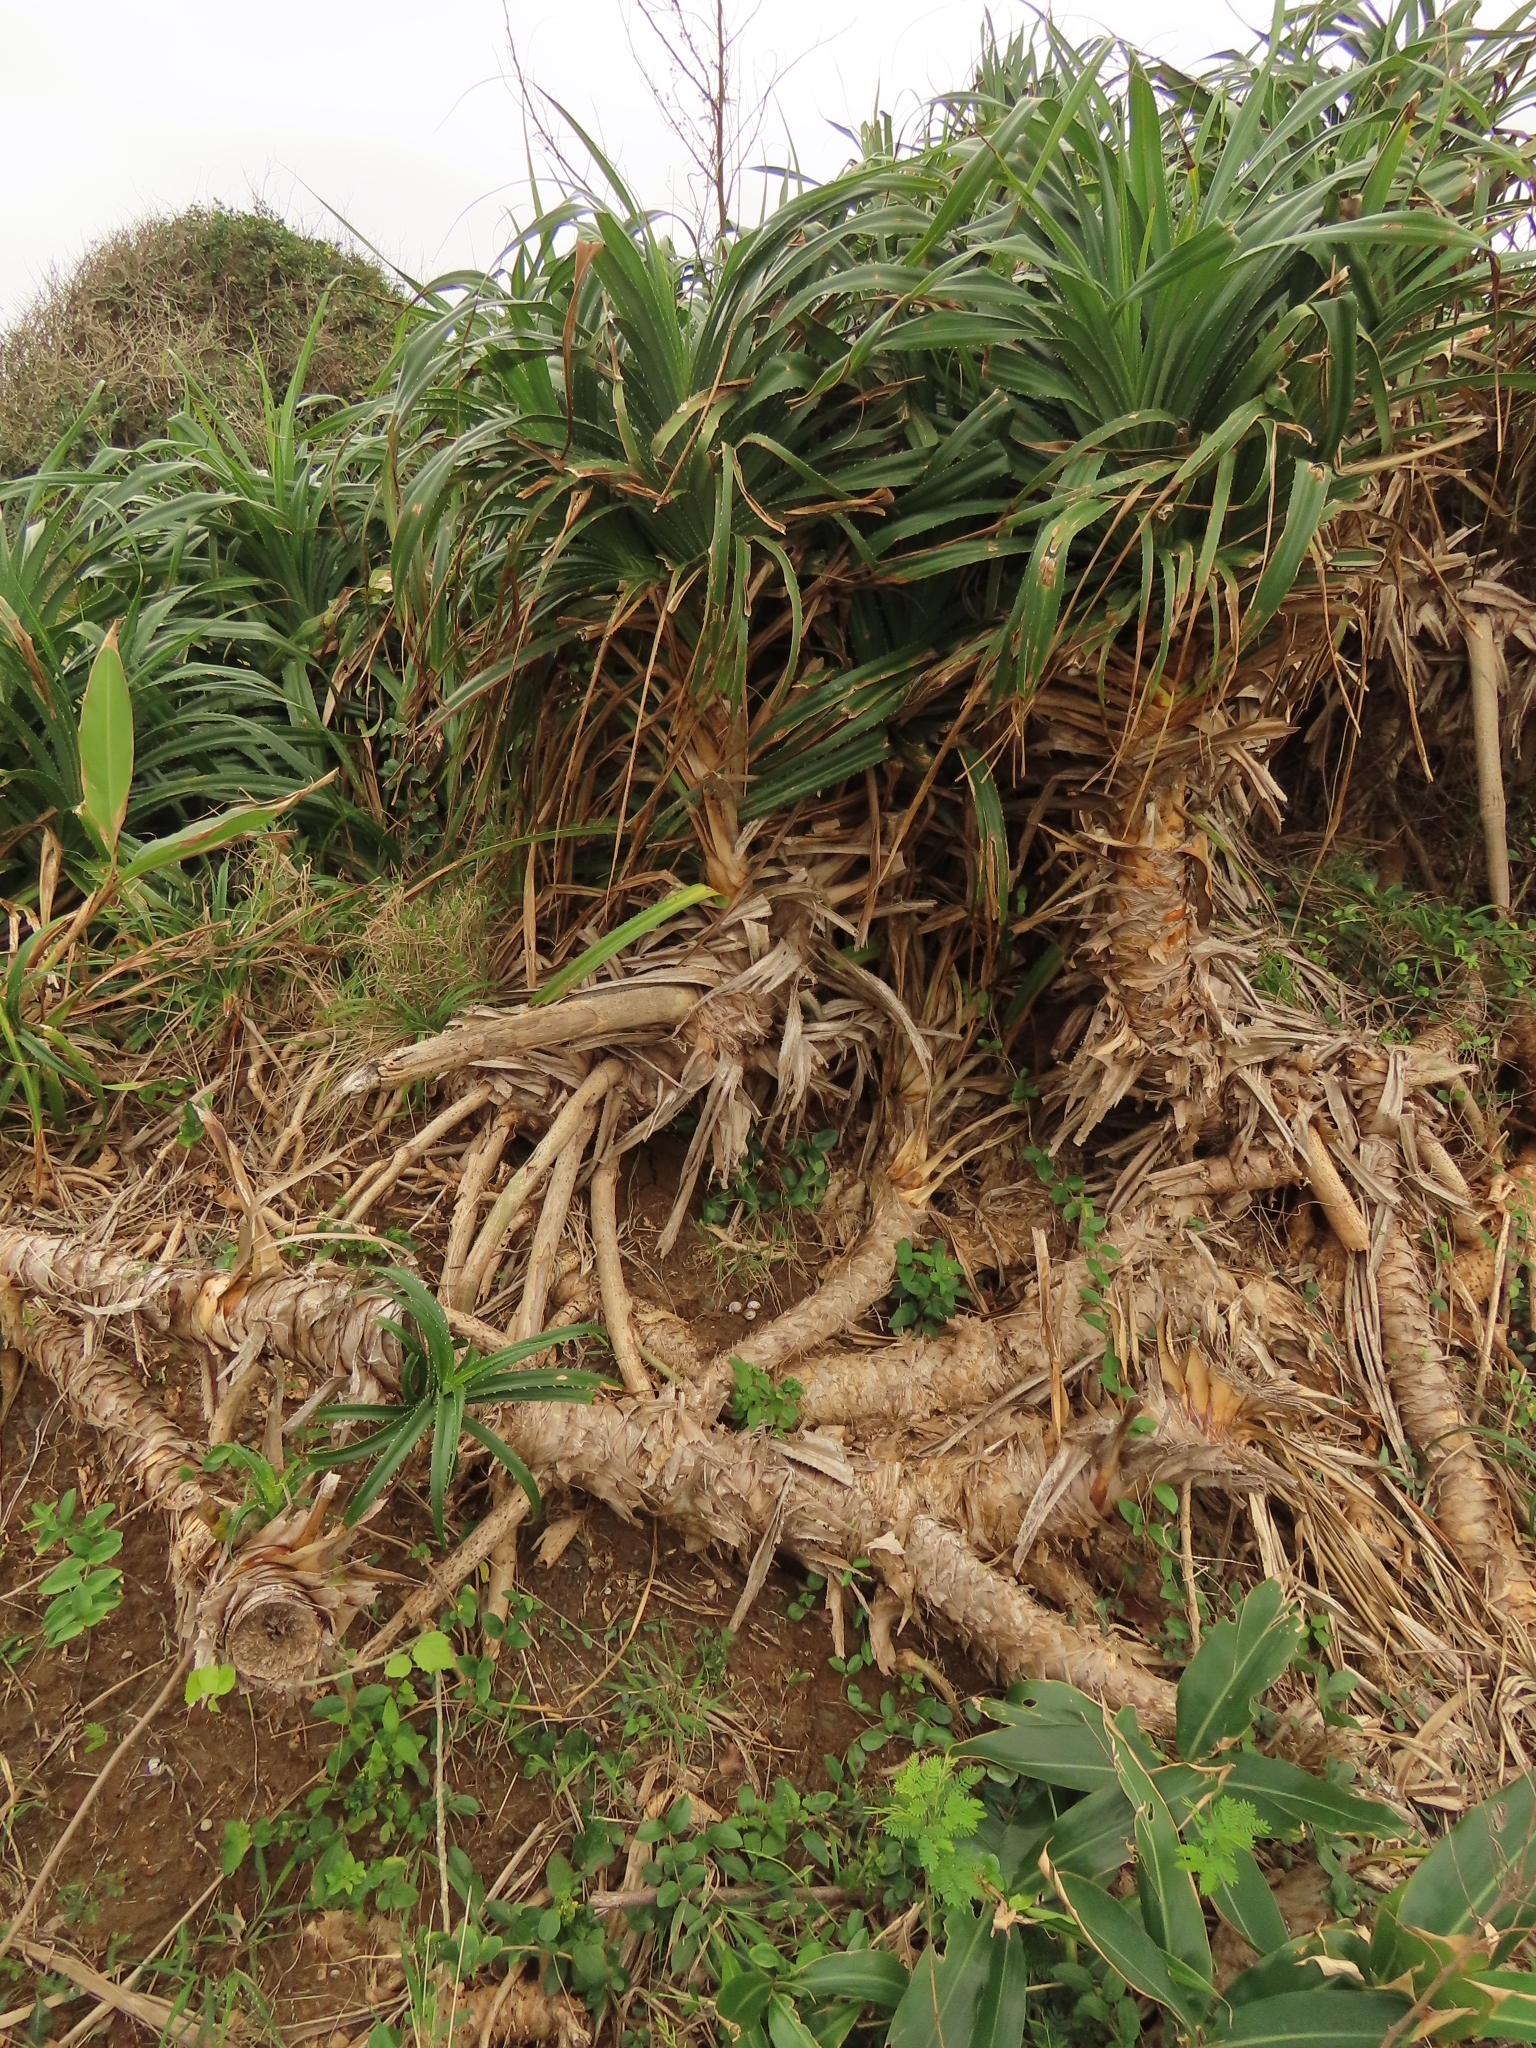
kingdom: Animalia
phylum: Mollusca
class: Gastropoda
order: Stylommatophora
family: Camaenidae
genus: Pancala
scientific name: Pancala batanica
